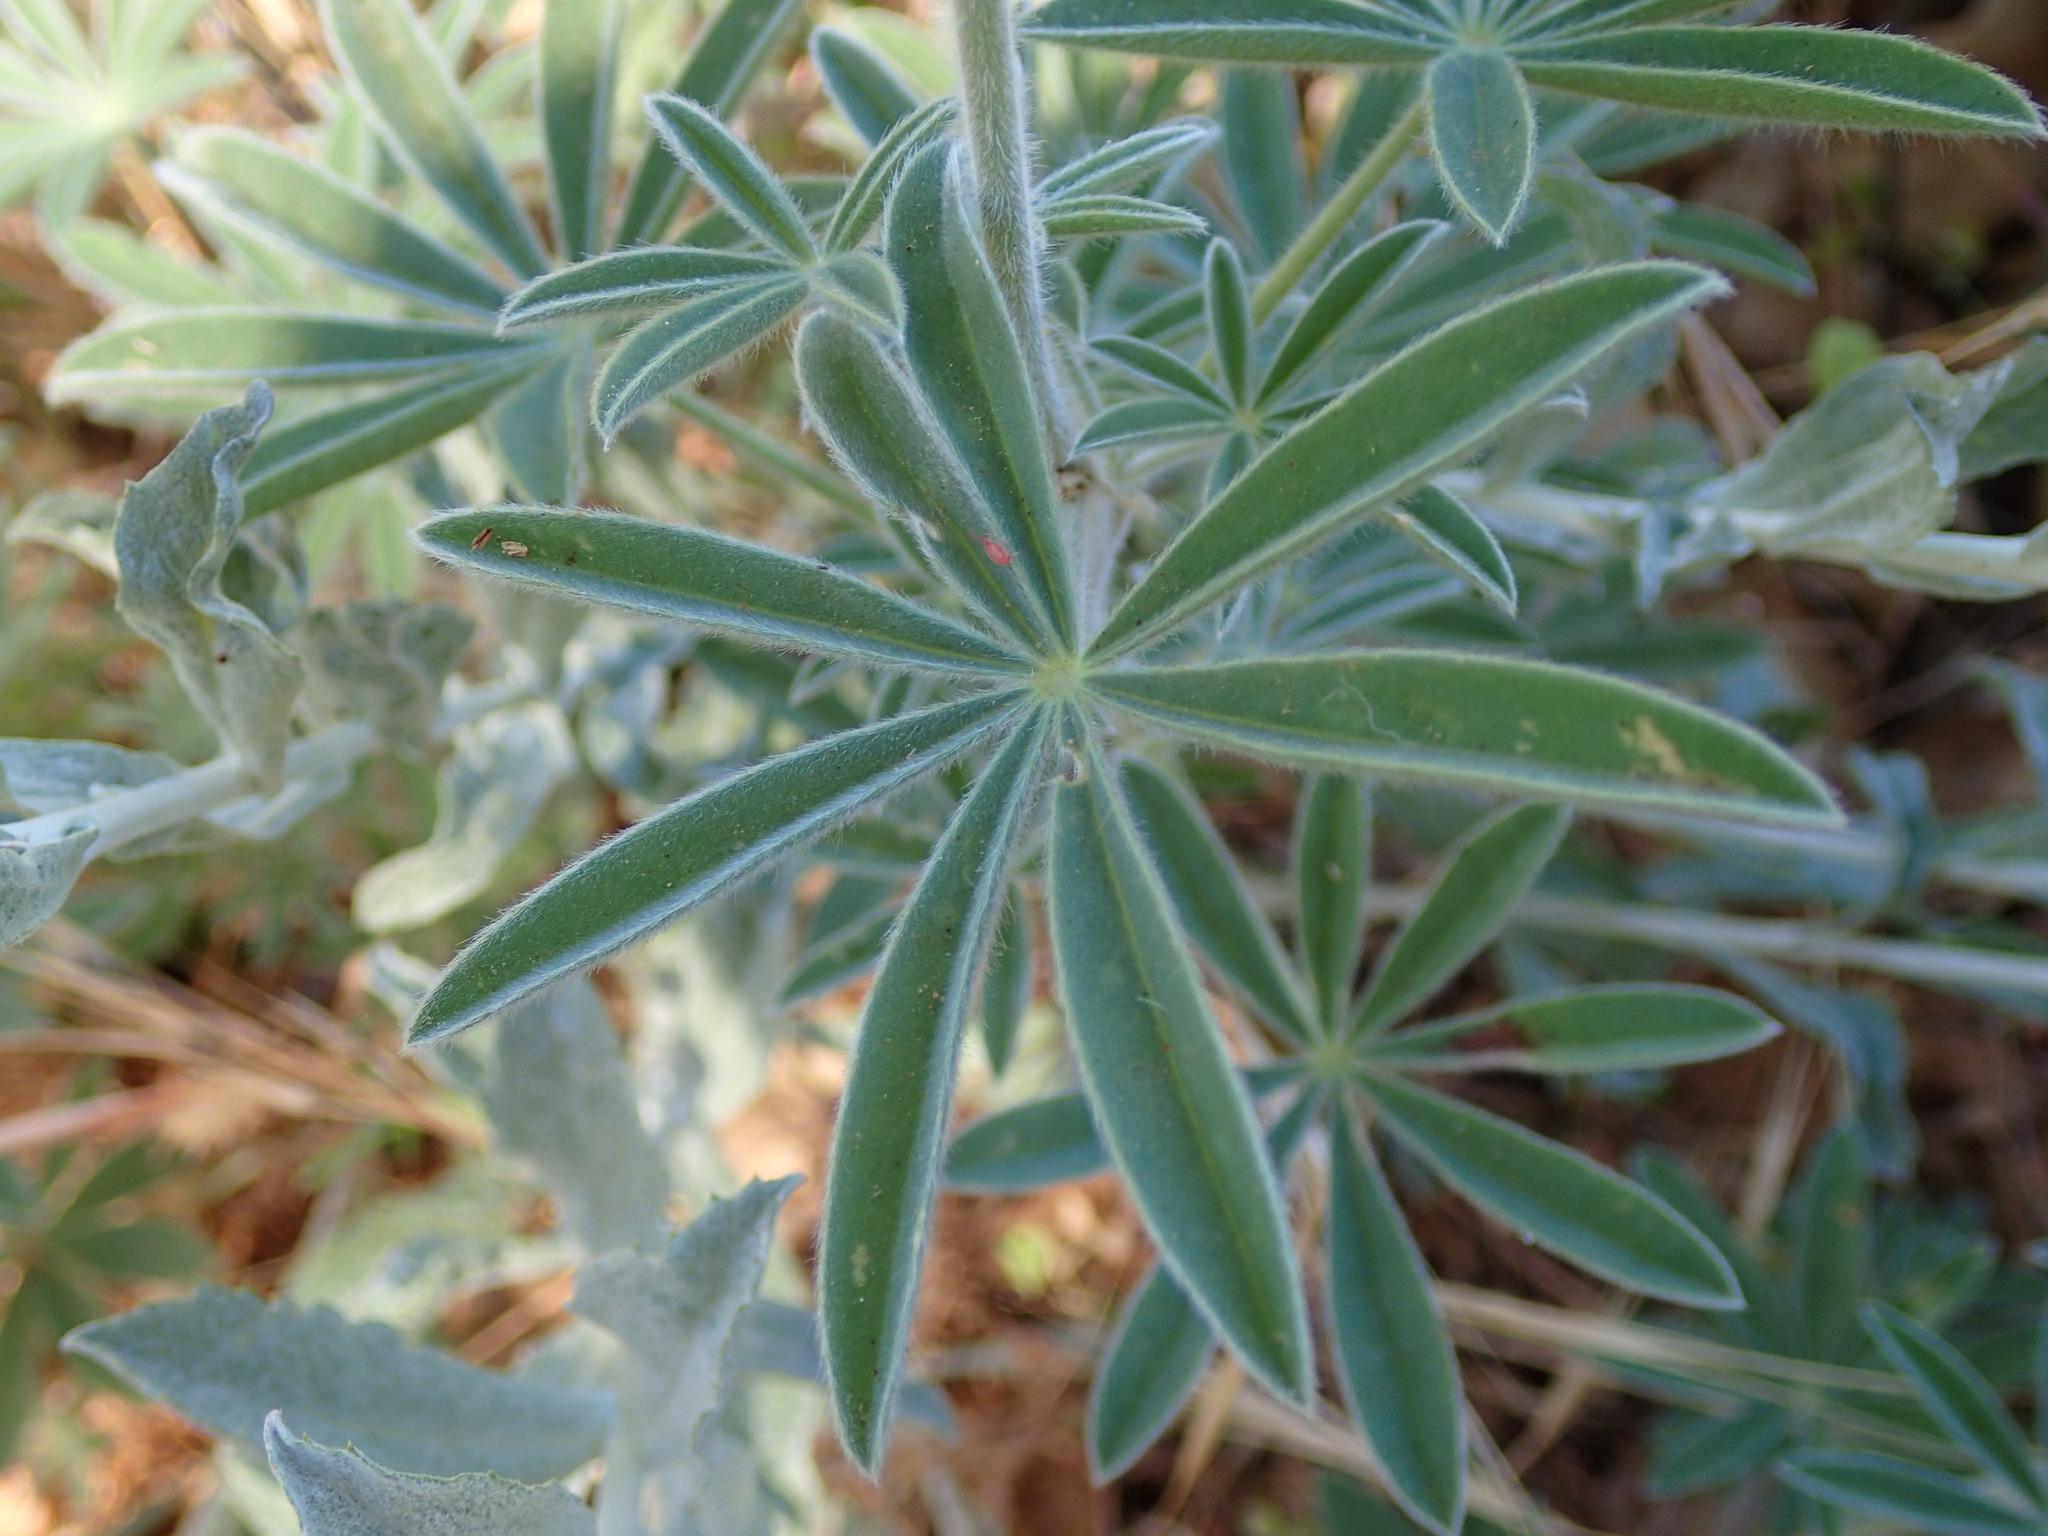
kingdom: Plantae
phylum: Tracheophyta
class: Magnoliopsida
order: Fabales
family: Fabaceae
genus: Lupinus
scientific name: Lupinus formosus
